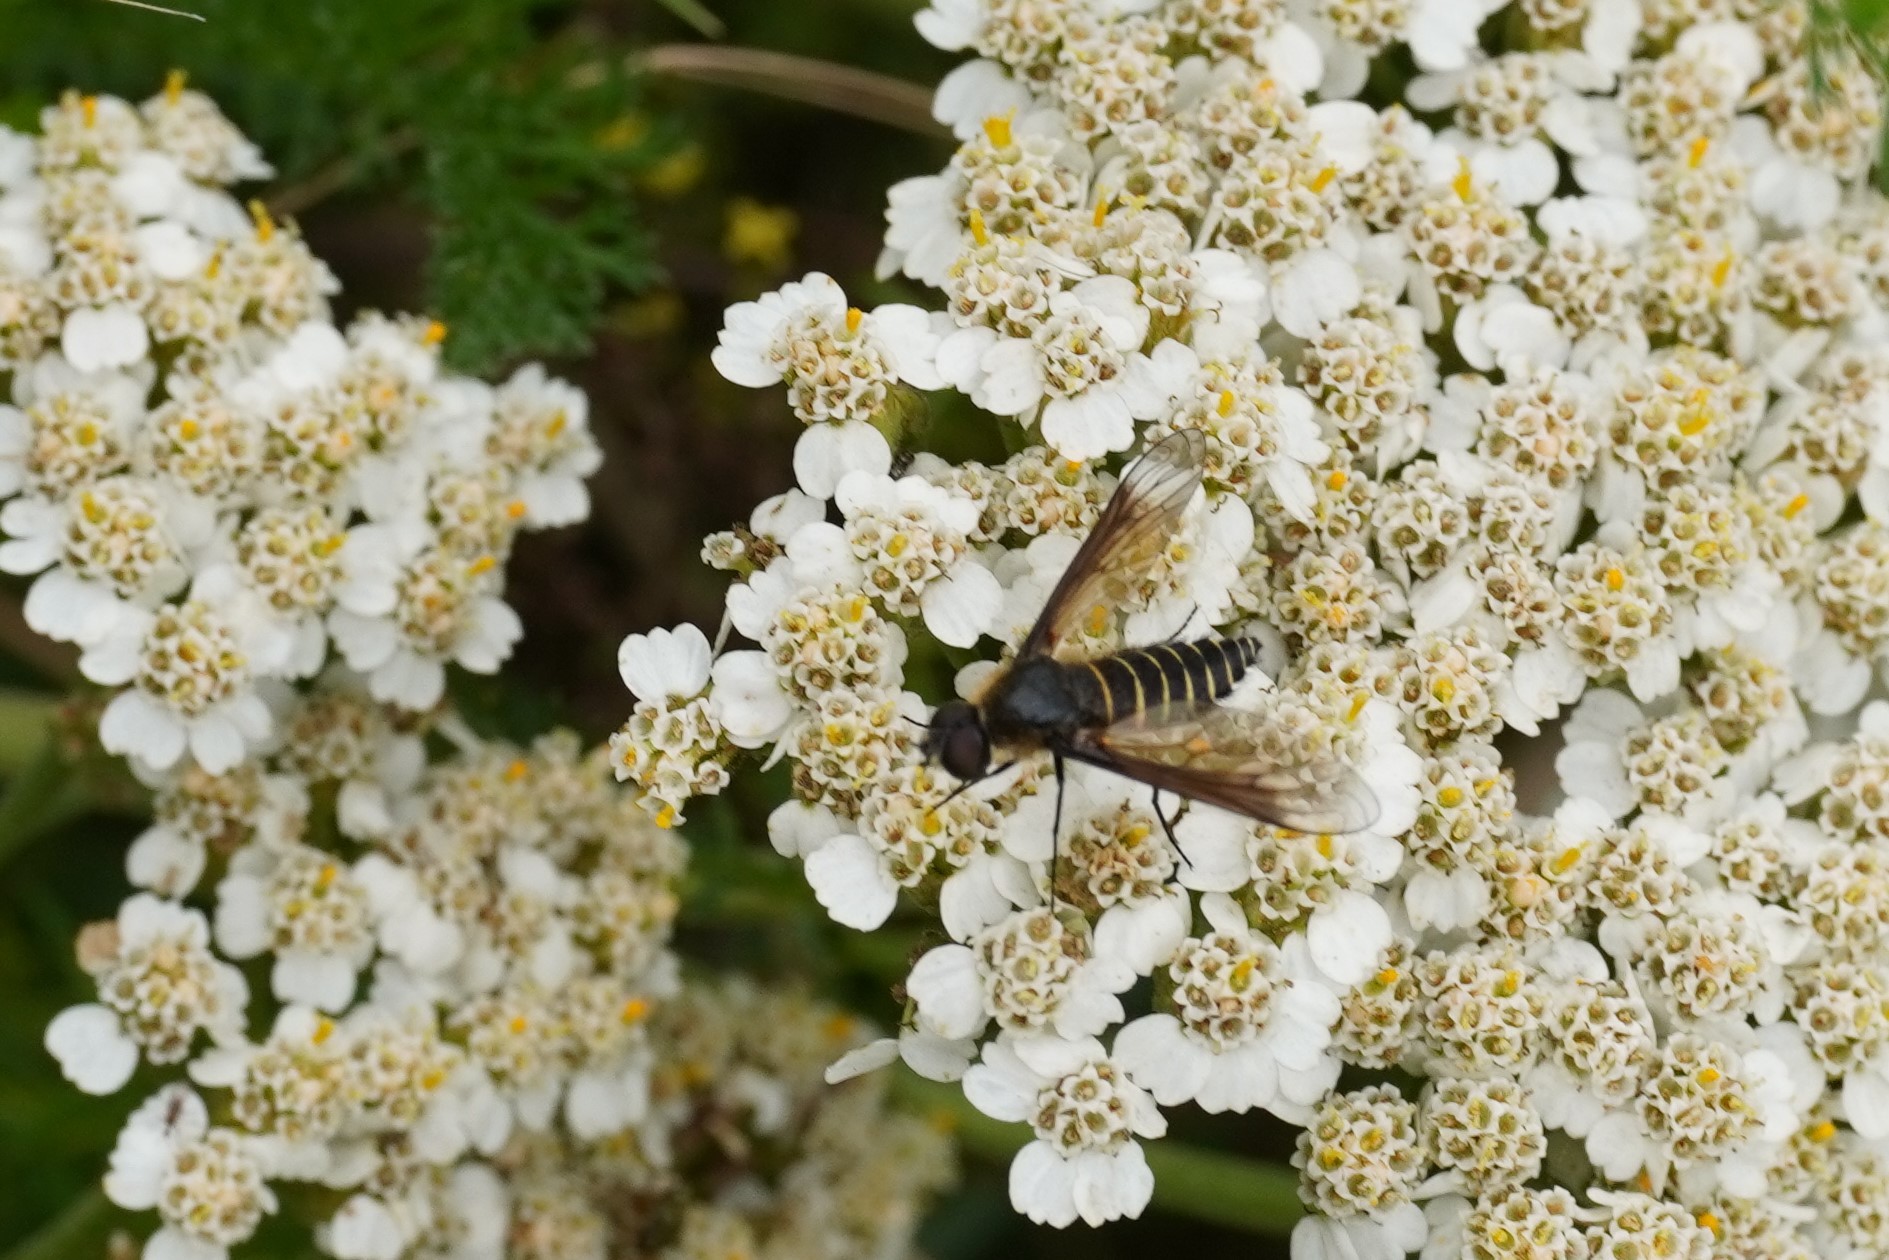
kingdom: Animalia
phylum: Arthropoda
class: Insecta
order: Diptera
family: Bombyliidae
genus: Lomatia
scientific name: Lomatia lateralis
